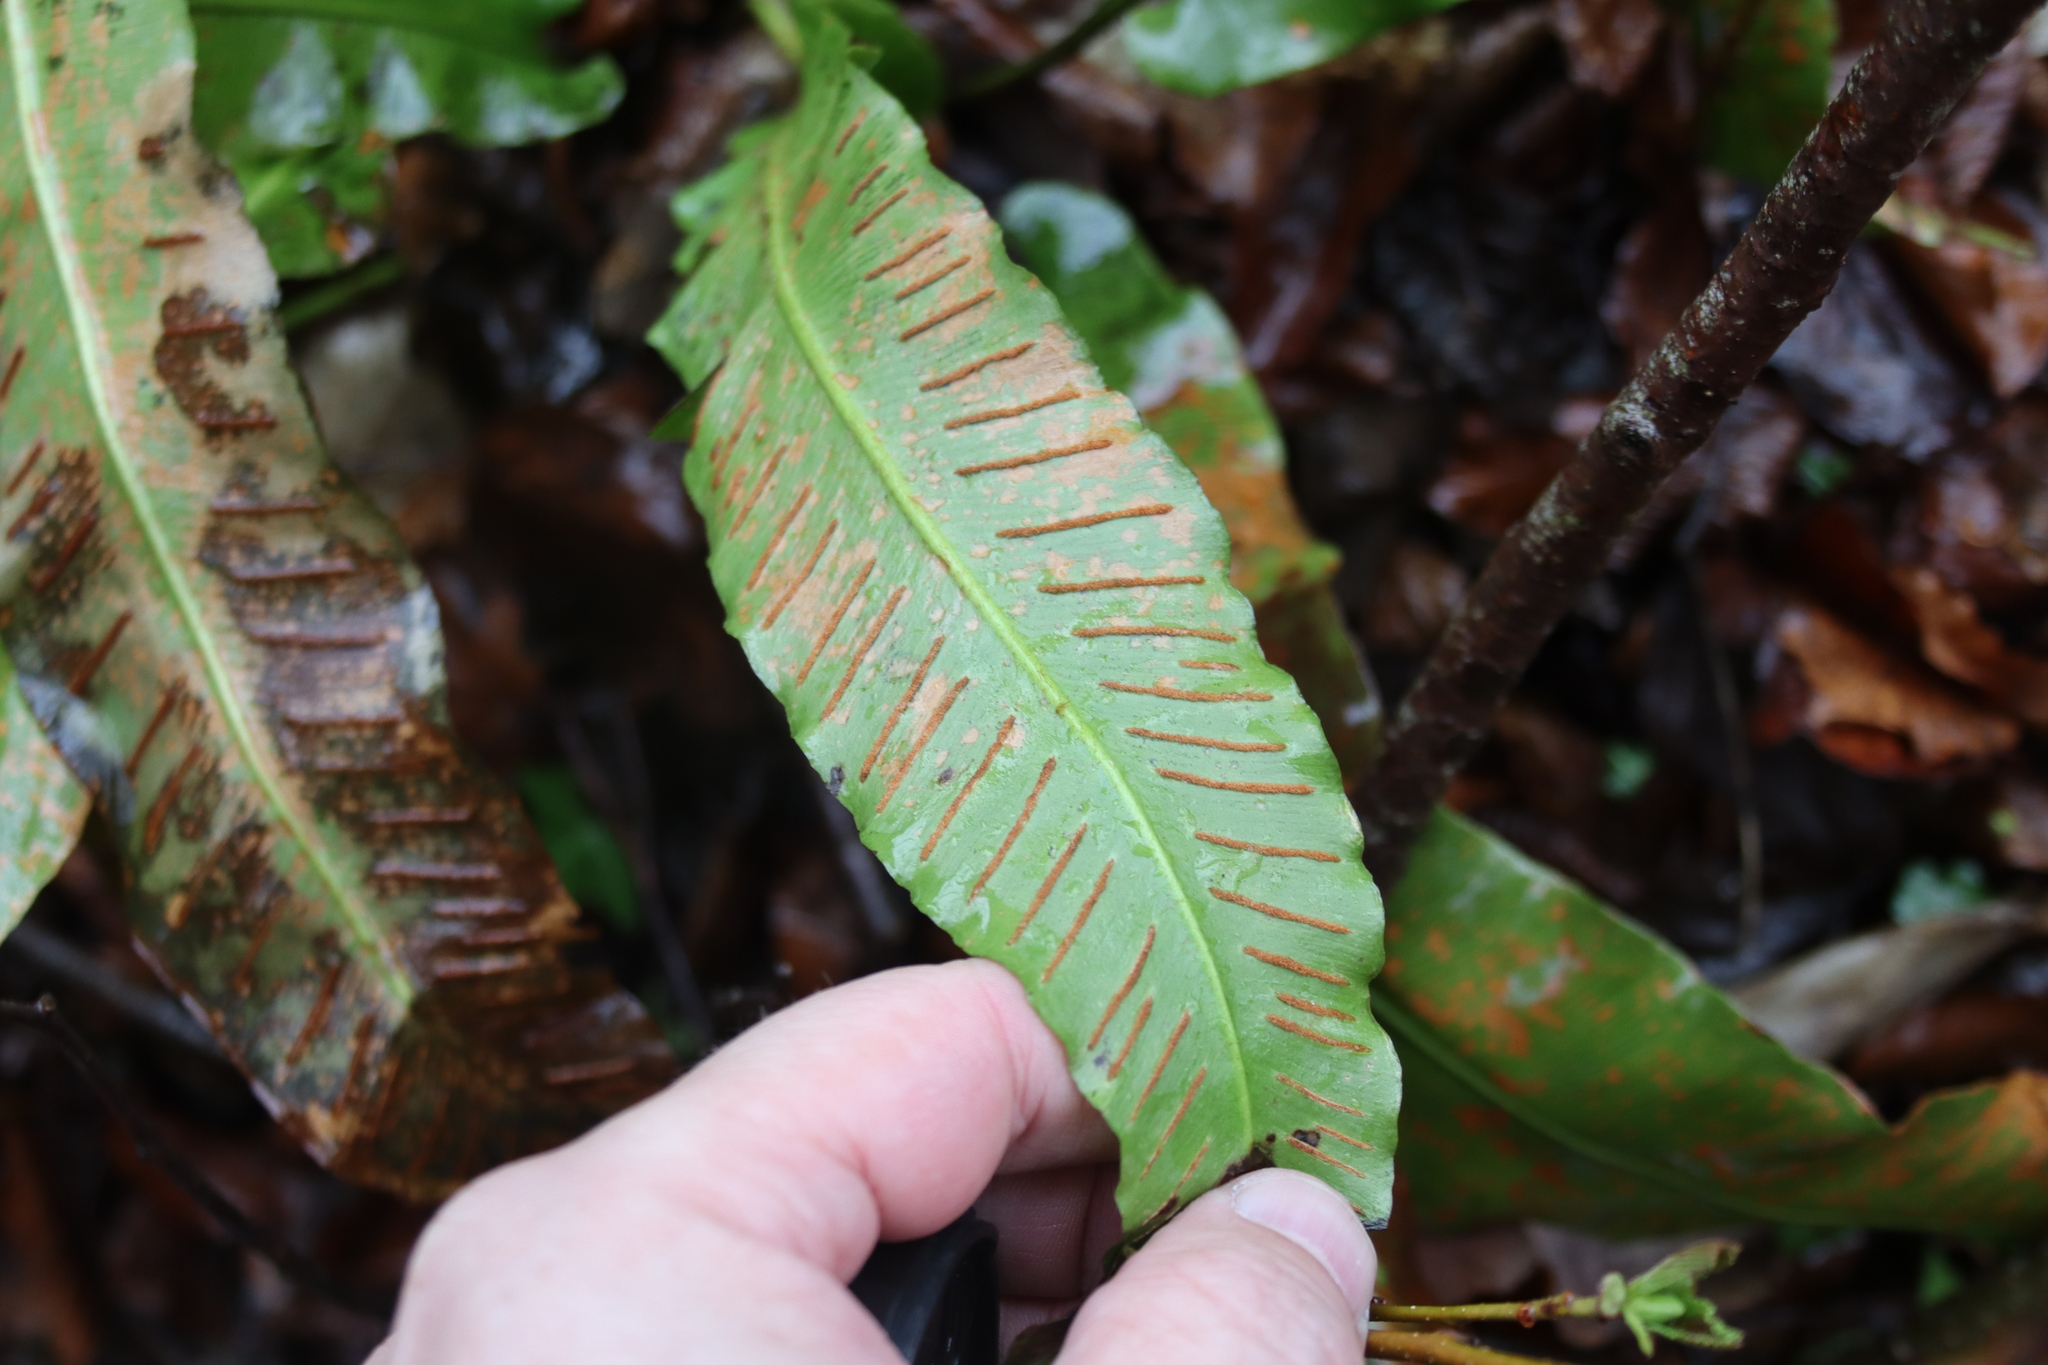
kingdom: Plantae
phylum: Tracheophyta
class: Polypodiopsida
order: Polypodiales
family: Aspleniaceae
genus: Asplenium
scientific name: Asplenium scolopendrium
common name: Hart's-tongue fern
